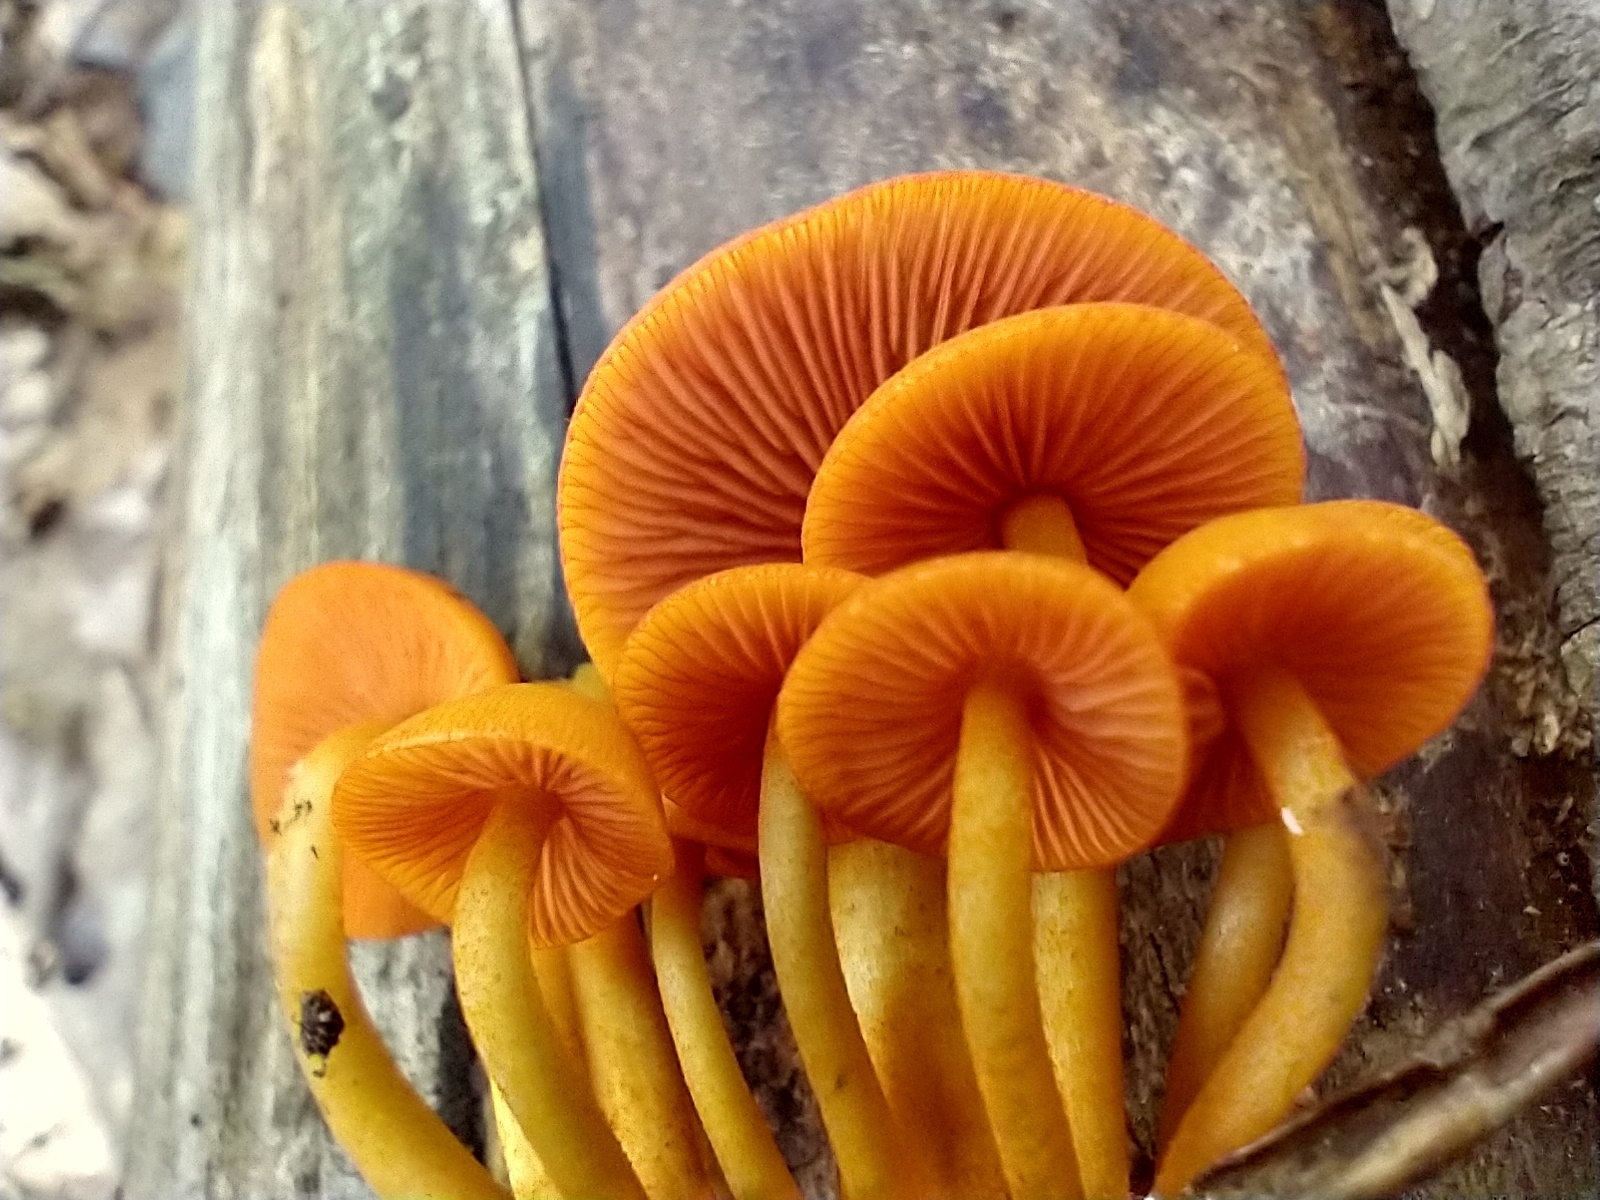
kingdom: Fungi
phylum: Basidiomycota
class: Agaricomycetes
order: Agaricales
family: Mycenaceae
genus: Mycena
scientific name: Mycena leaiana
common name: Orange mycena
